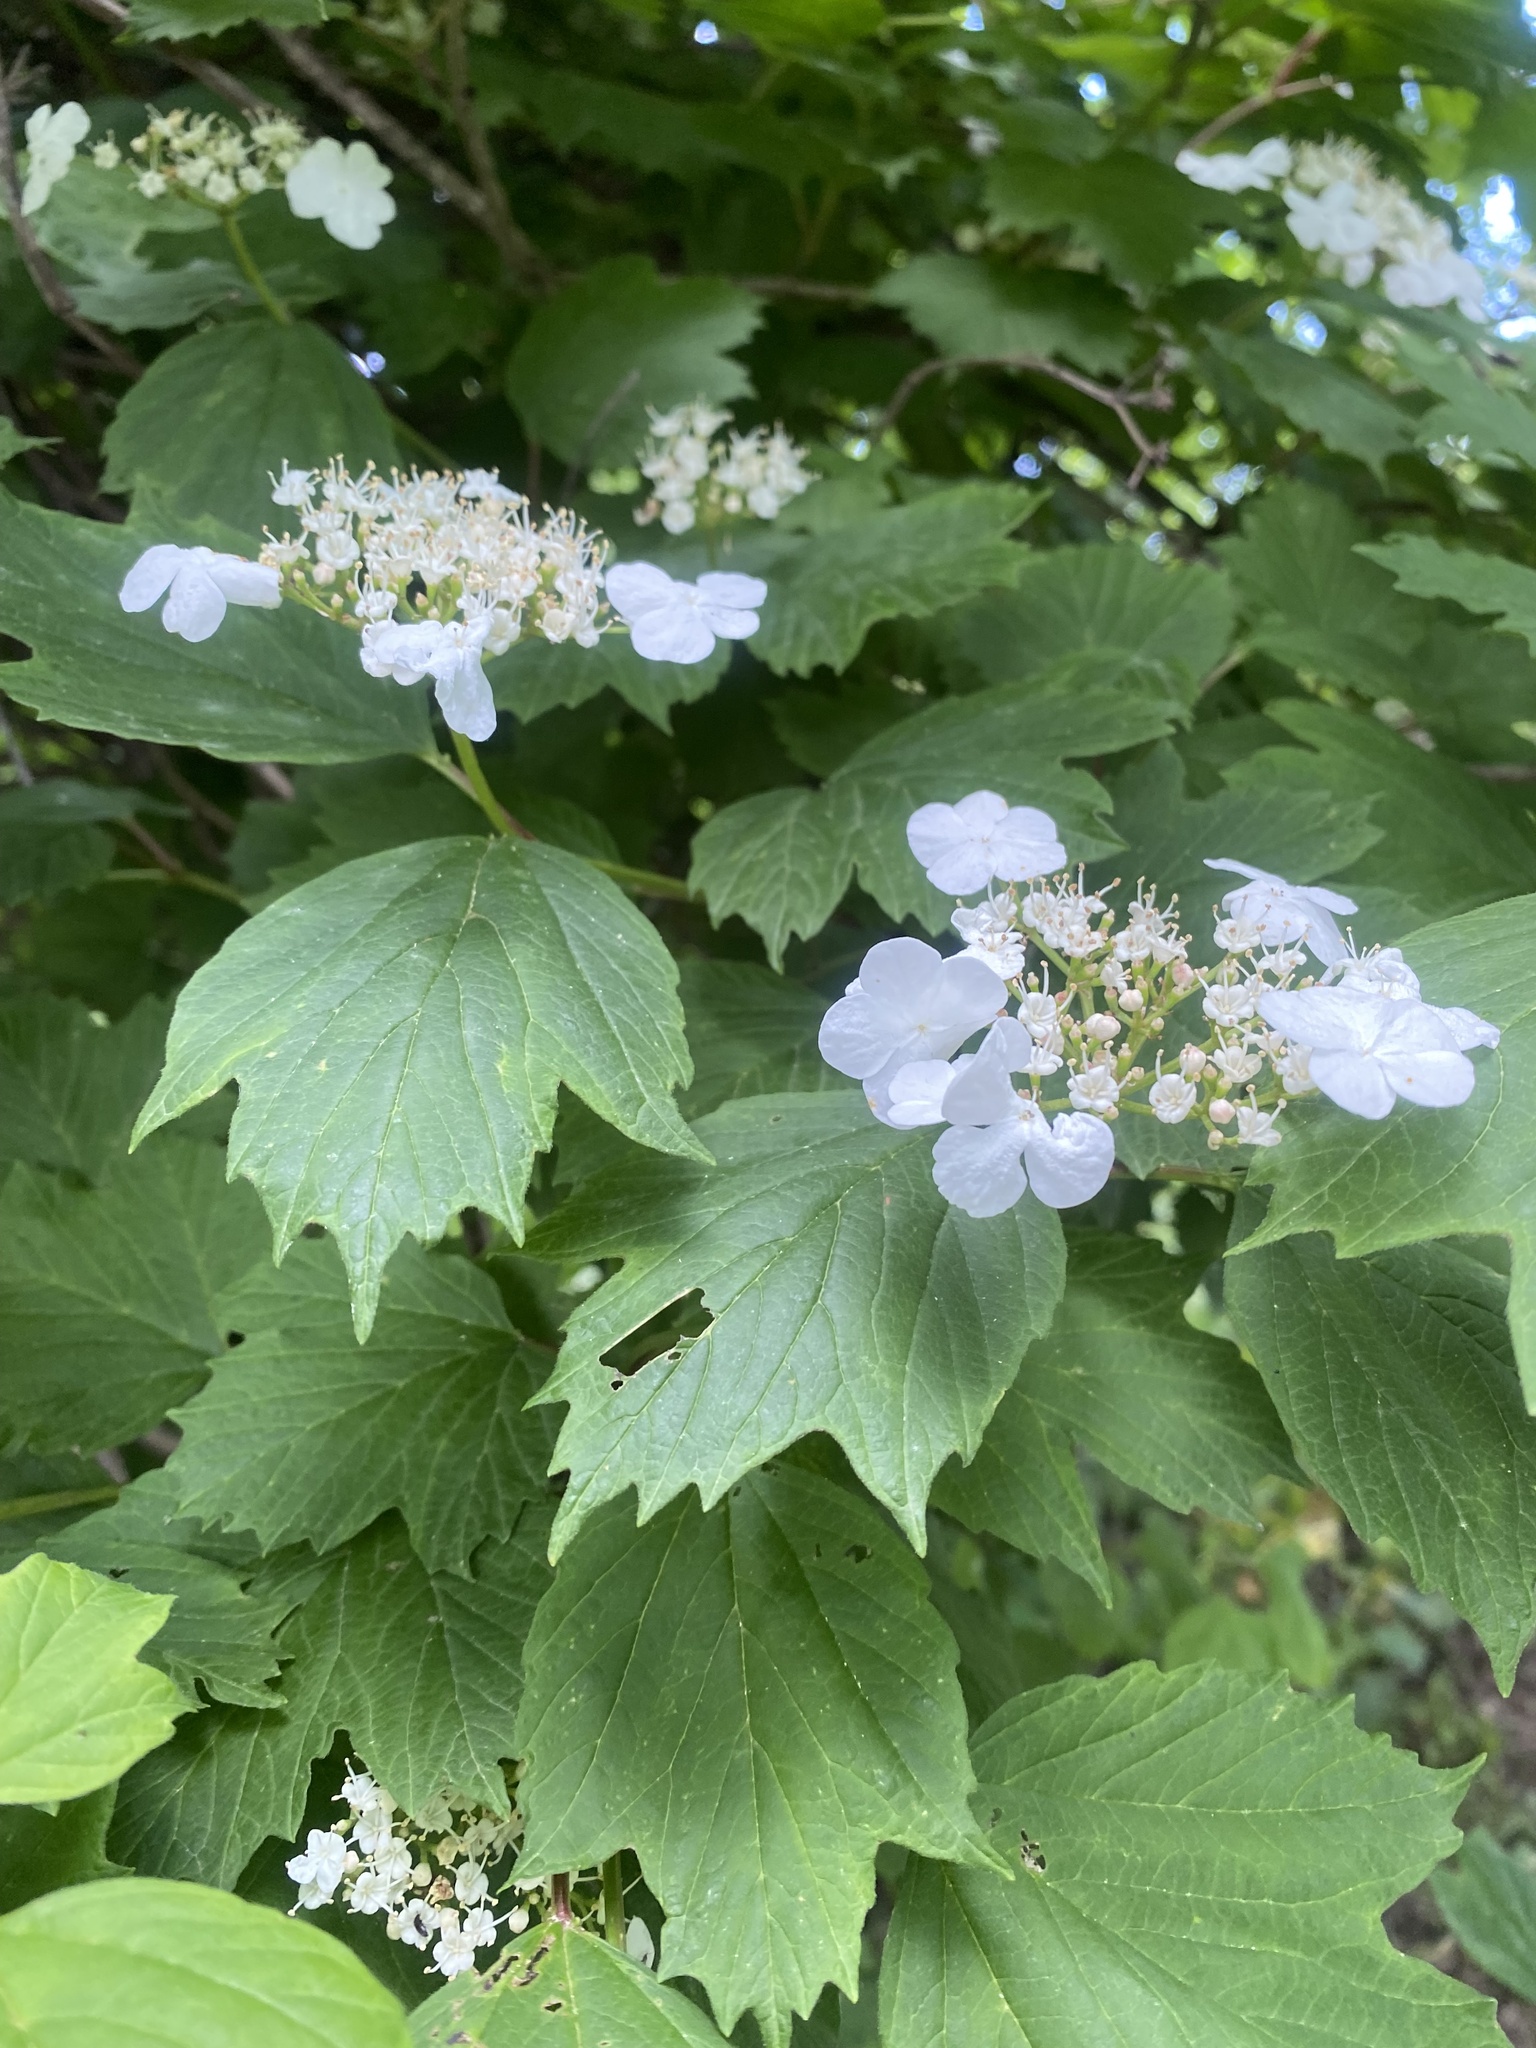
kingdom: Plantae
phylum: Tracheophyta
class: Magnoliopsida
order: Dipsacales
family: Viburnaceae
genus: Viburnum
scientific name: Viburnum opulus
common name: Guelder-rose
